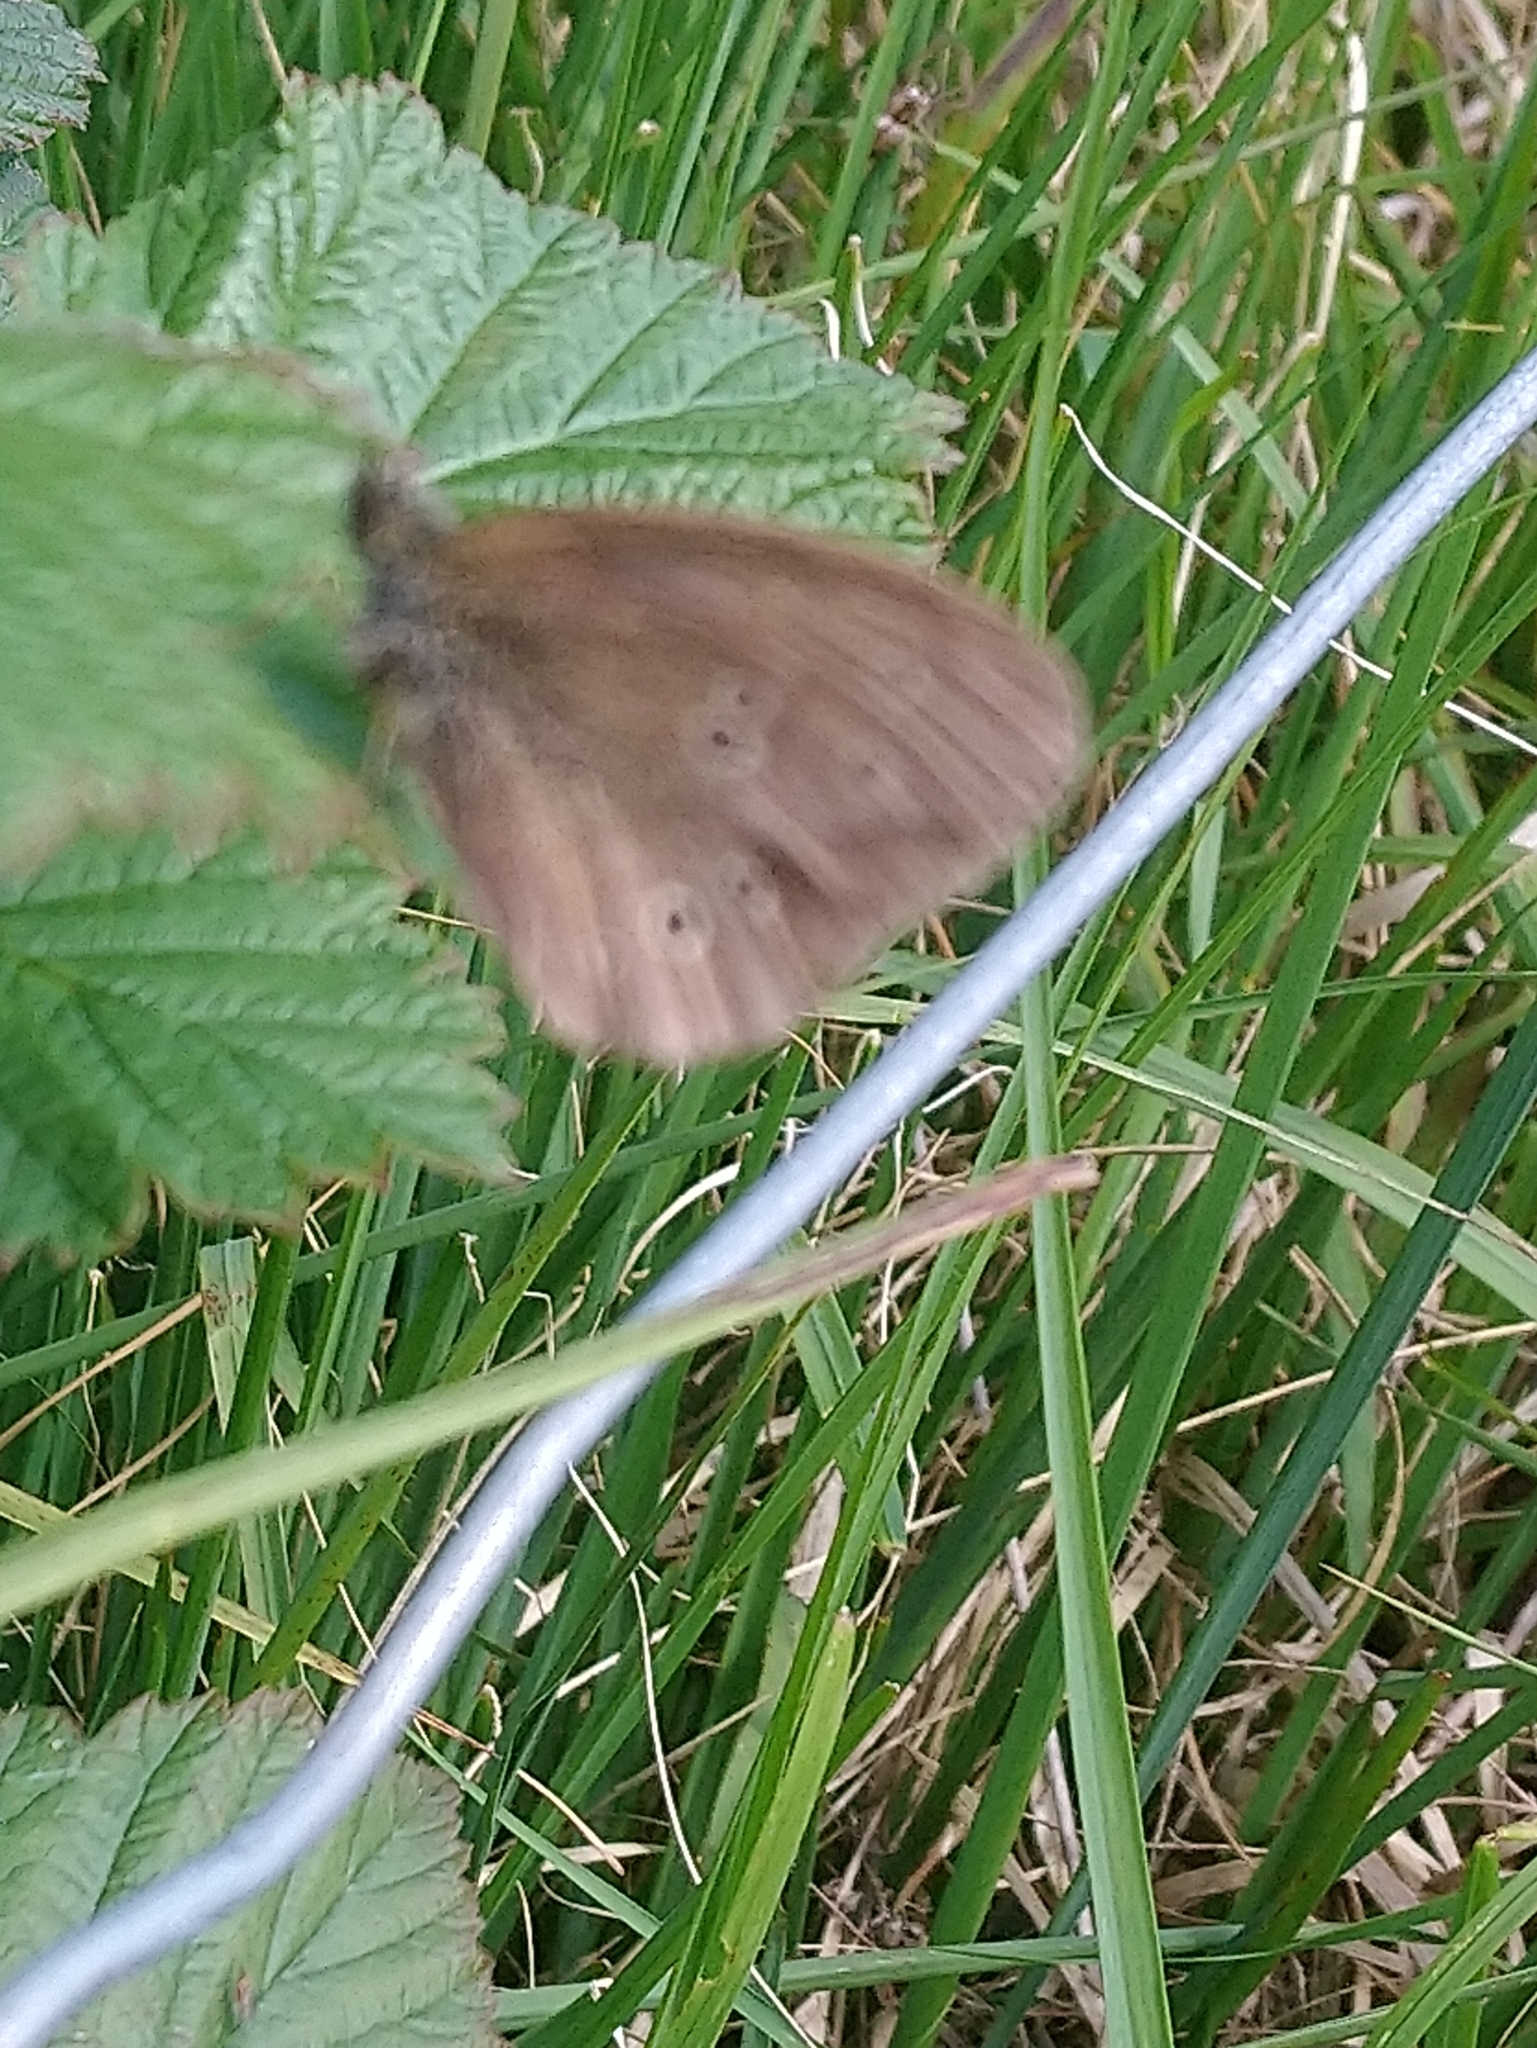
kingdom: Animalia
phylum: Arthropoda
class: Insecta
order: Lepidoptera
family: Nymphalidae
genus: Aphantopus
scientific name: Aphantopus hyperantus
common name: Ringlet
